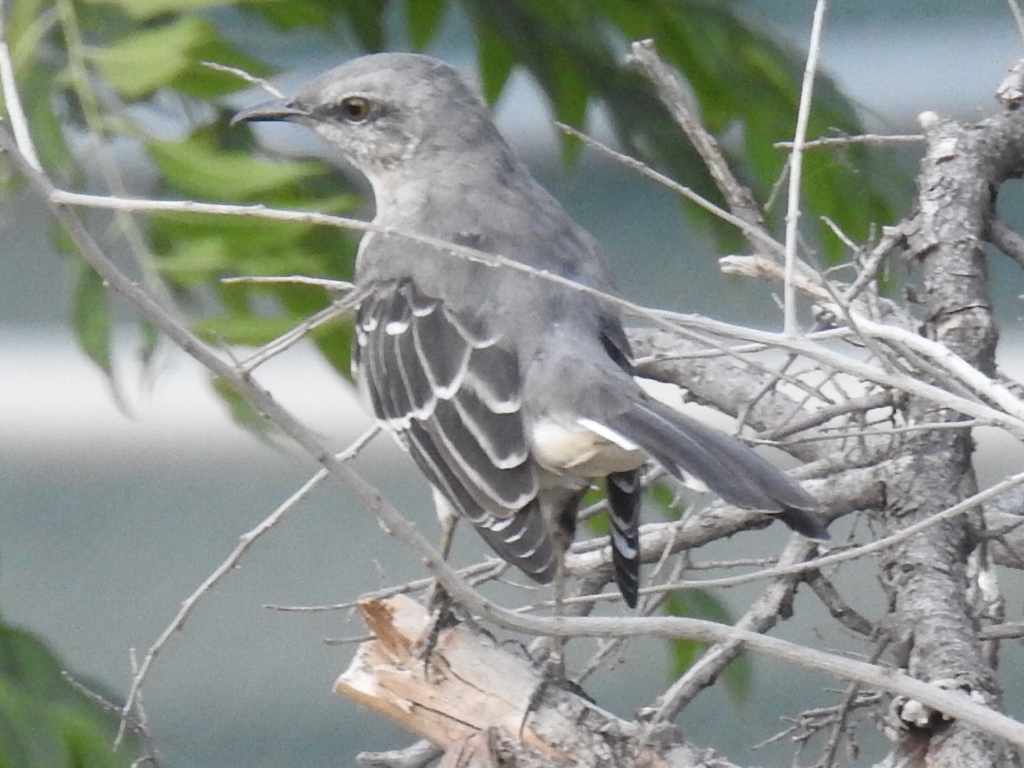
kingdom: Animalia
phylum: Chordata
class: Aves
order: Passeriformes
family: Mimidae
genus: Mimus
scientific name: Mimus polyglottos
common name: Northern mockingbird
